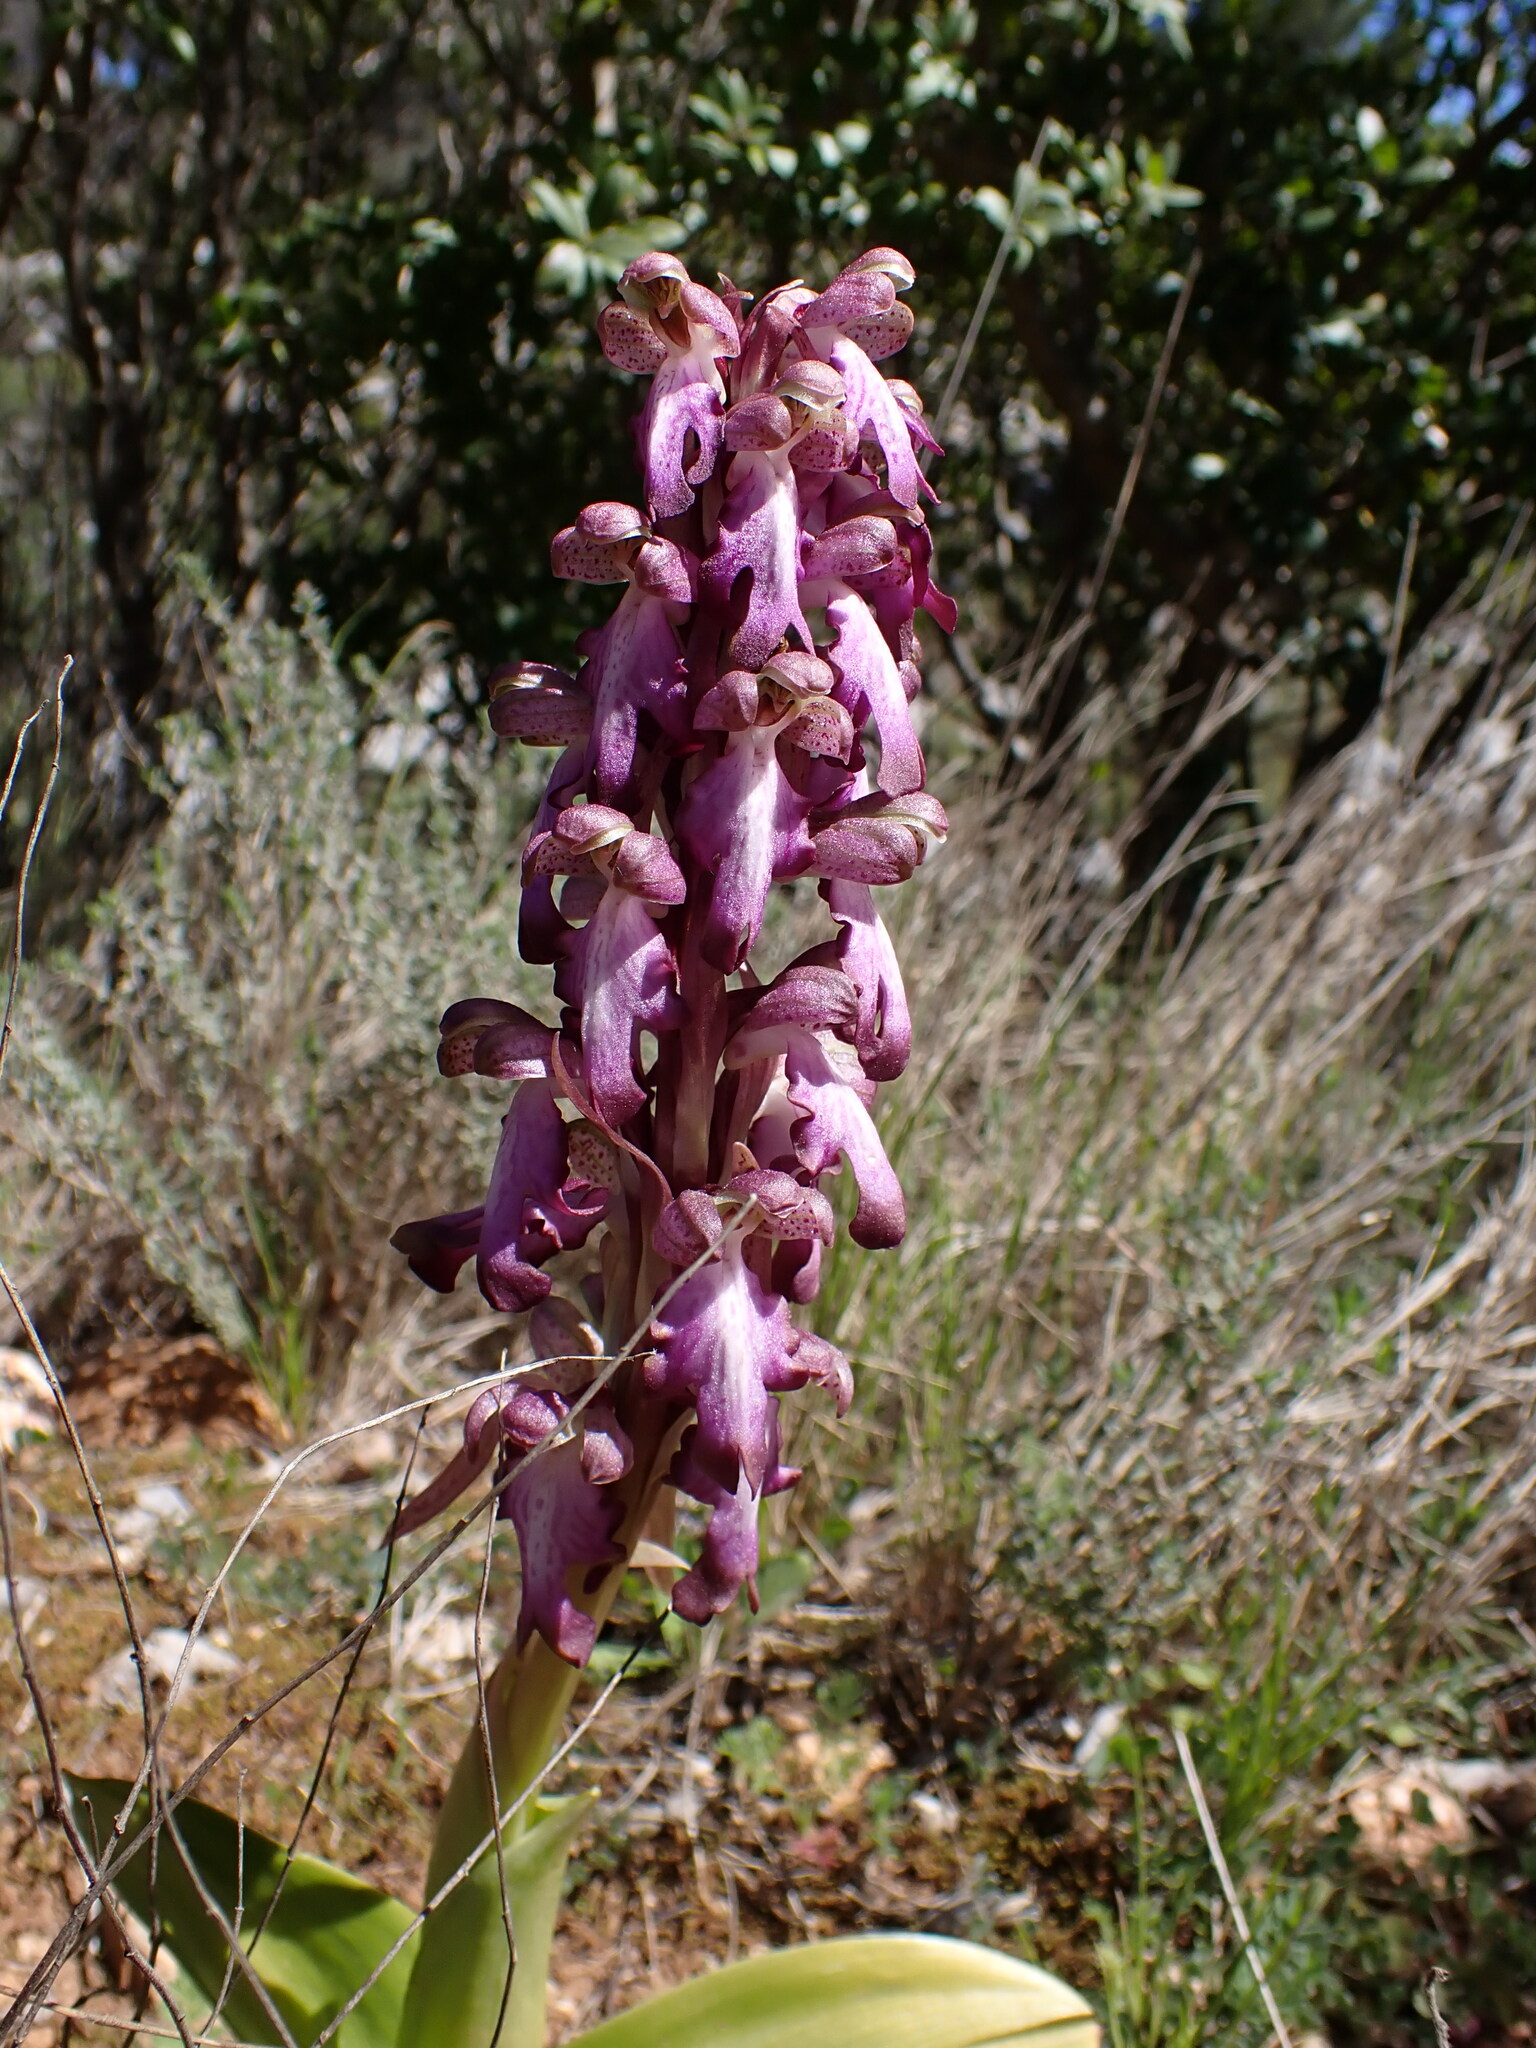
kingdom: Plantae
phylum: Tracheophyta
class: Liliopsida
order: Asparagales
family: Orchidaceae
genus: Himantoglossum
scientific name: Himantoglossum robertianum
